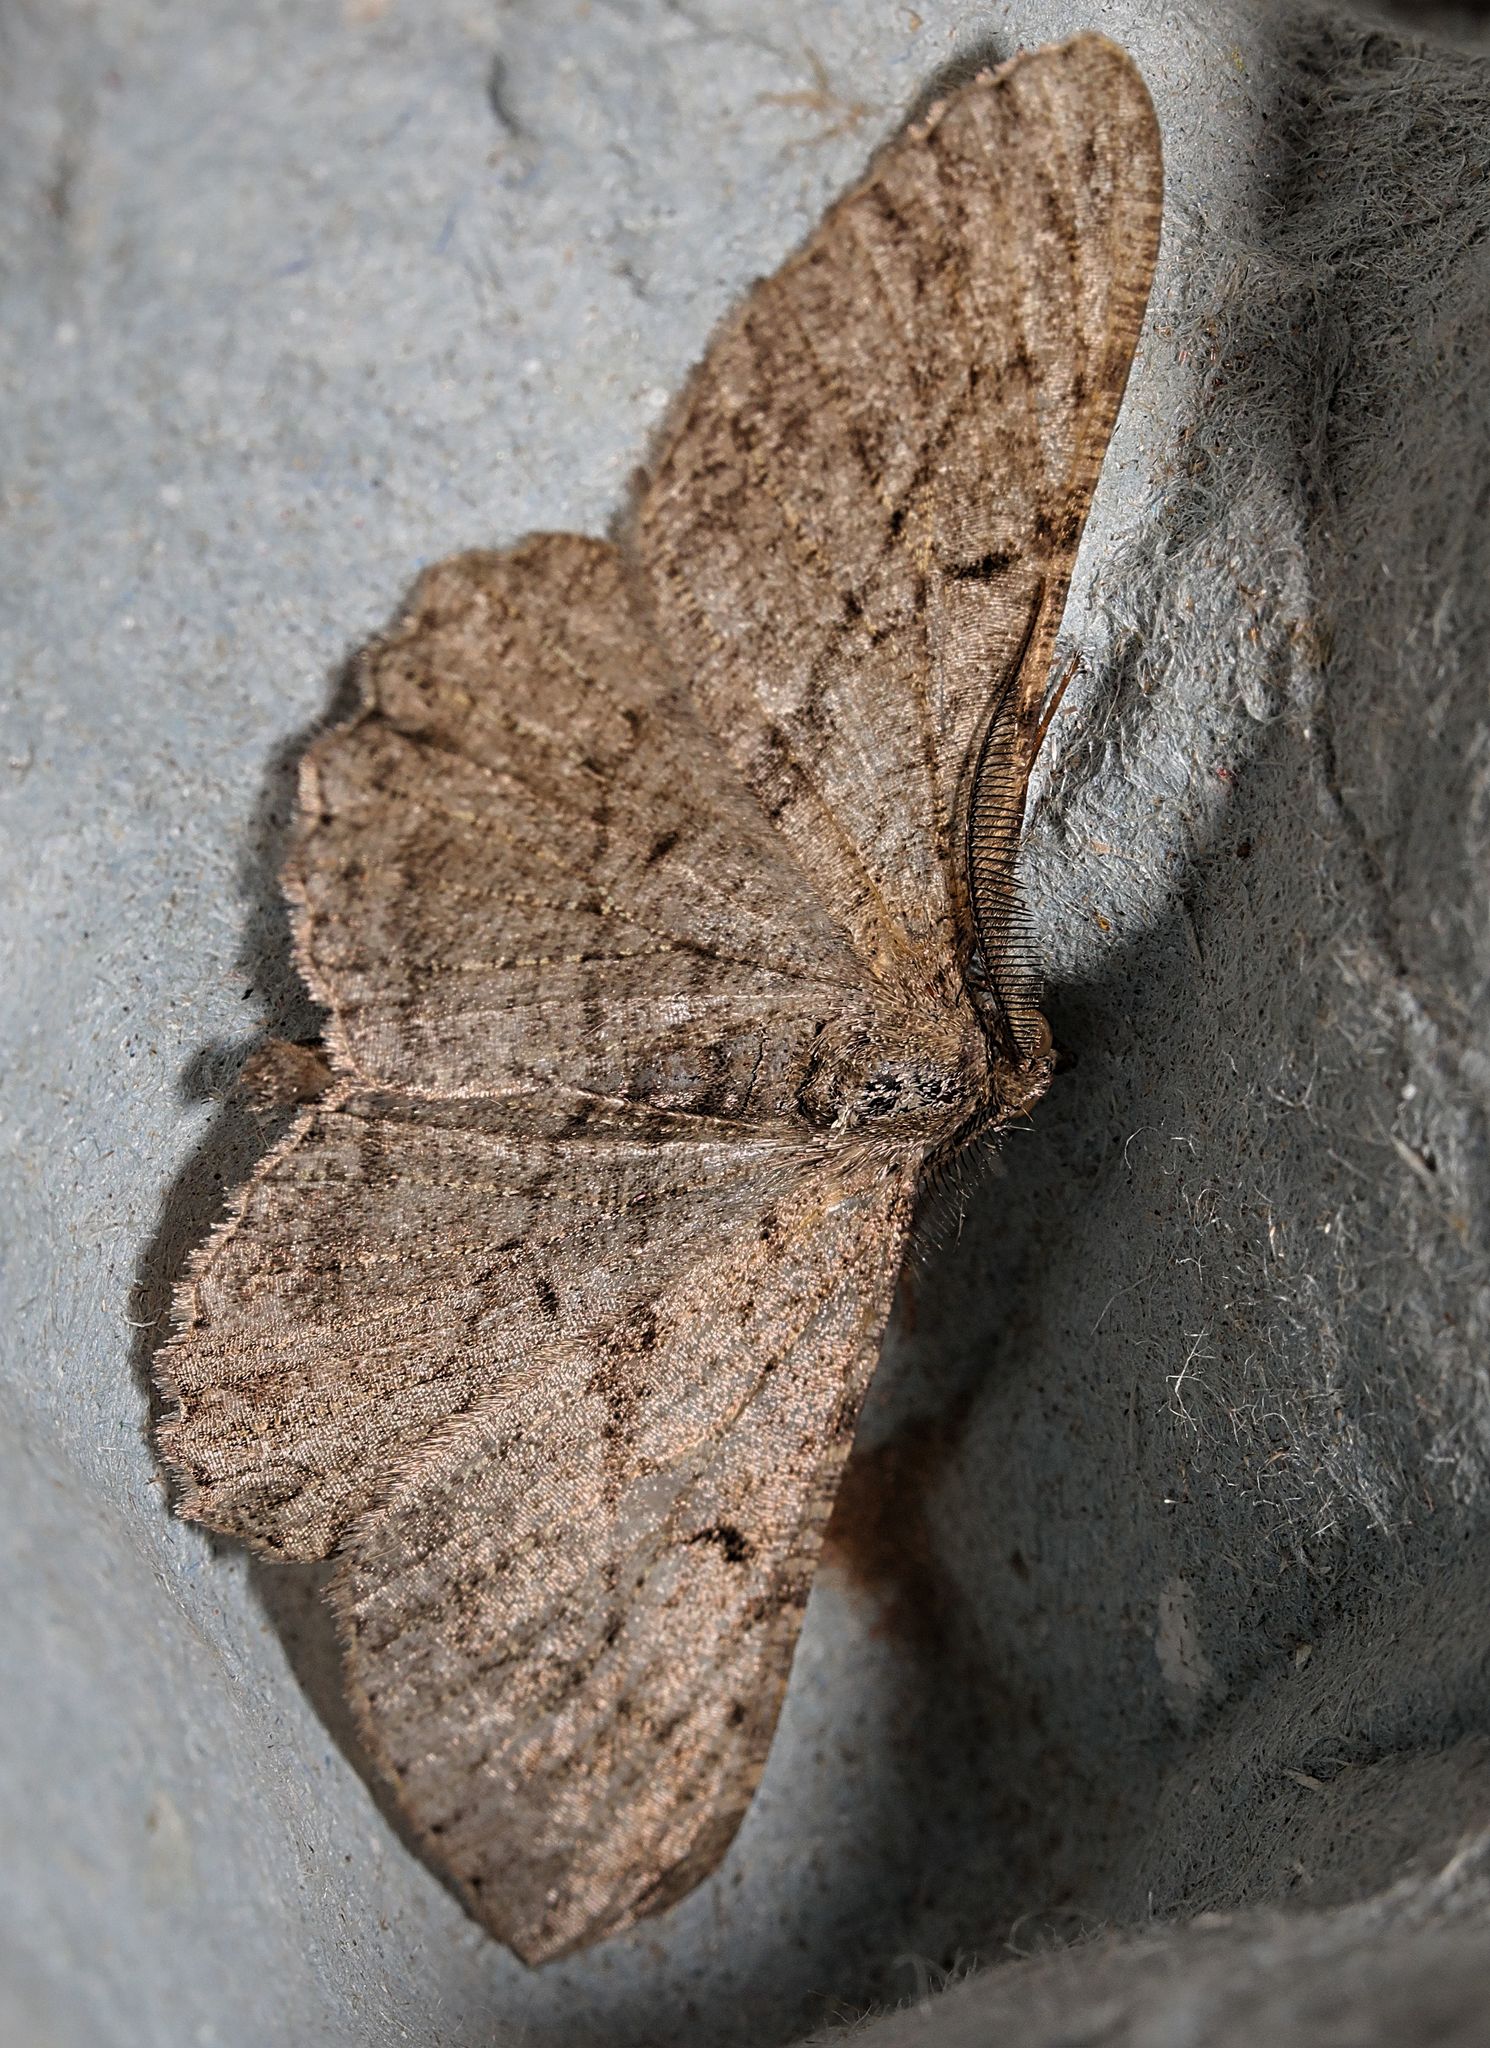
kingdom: Animalia
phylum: Arthropoda
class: Insecta
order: Lepidoptera
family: Geometridae
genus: Peribatodes
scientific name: Peribatodes rhomboidaria
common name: Willow beauty
